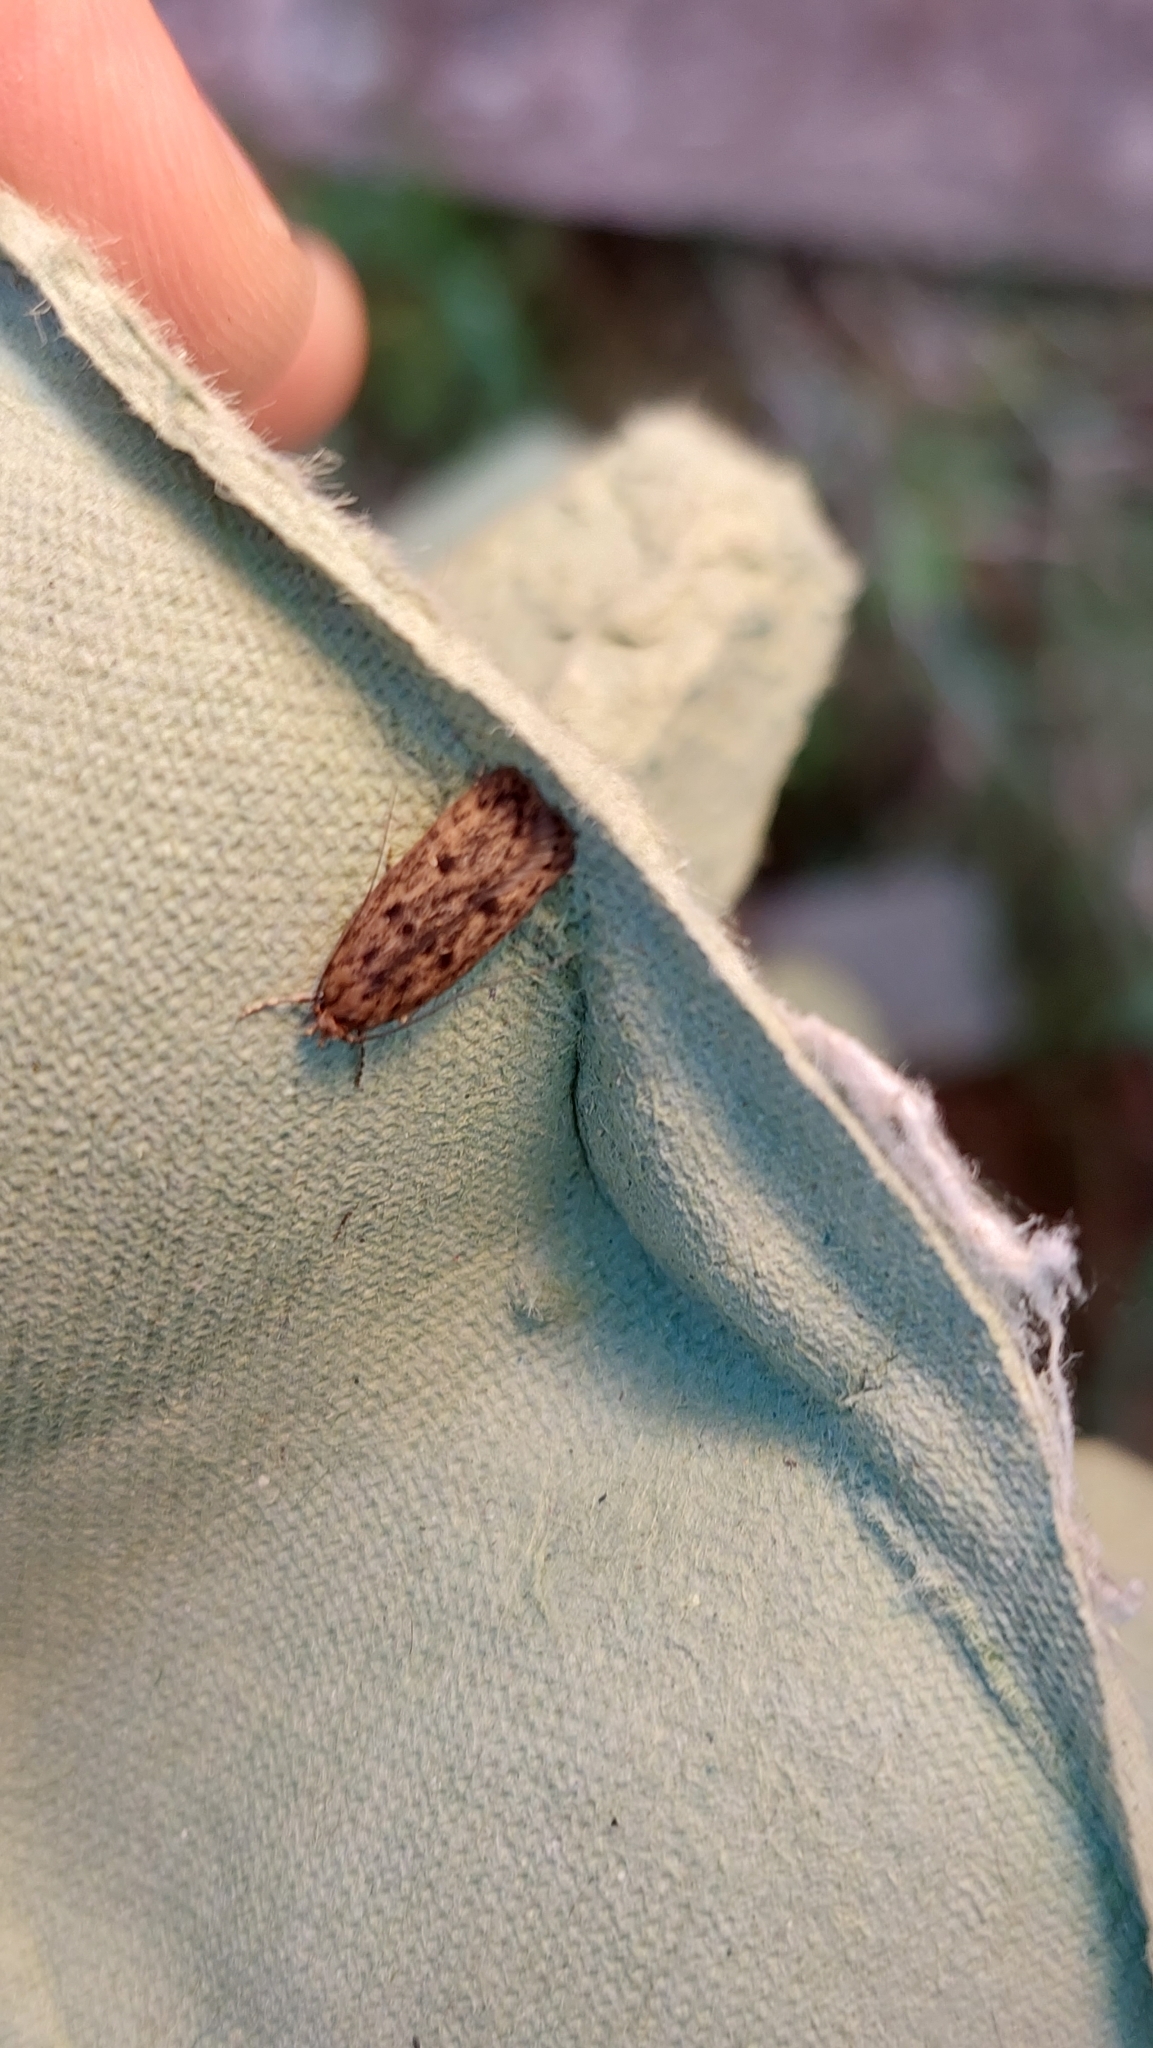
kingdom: Animalia
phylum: Arthropoda
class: Insecta
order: Lepidoptera
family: Oecophoridae
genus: Hofmannophila
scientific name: Hofmannophila pseudospretella
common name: Brown house moth
